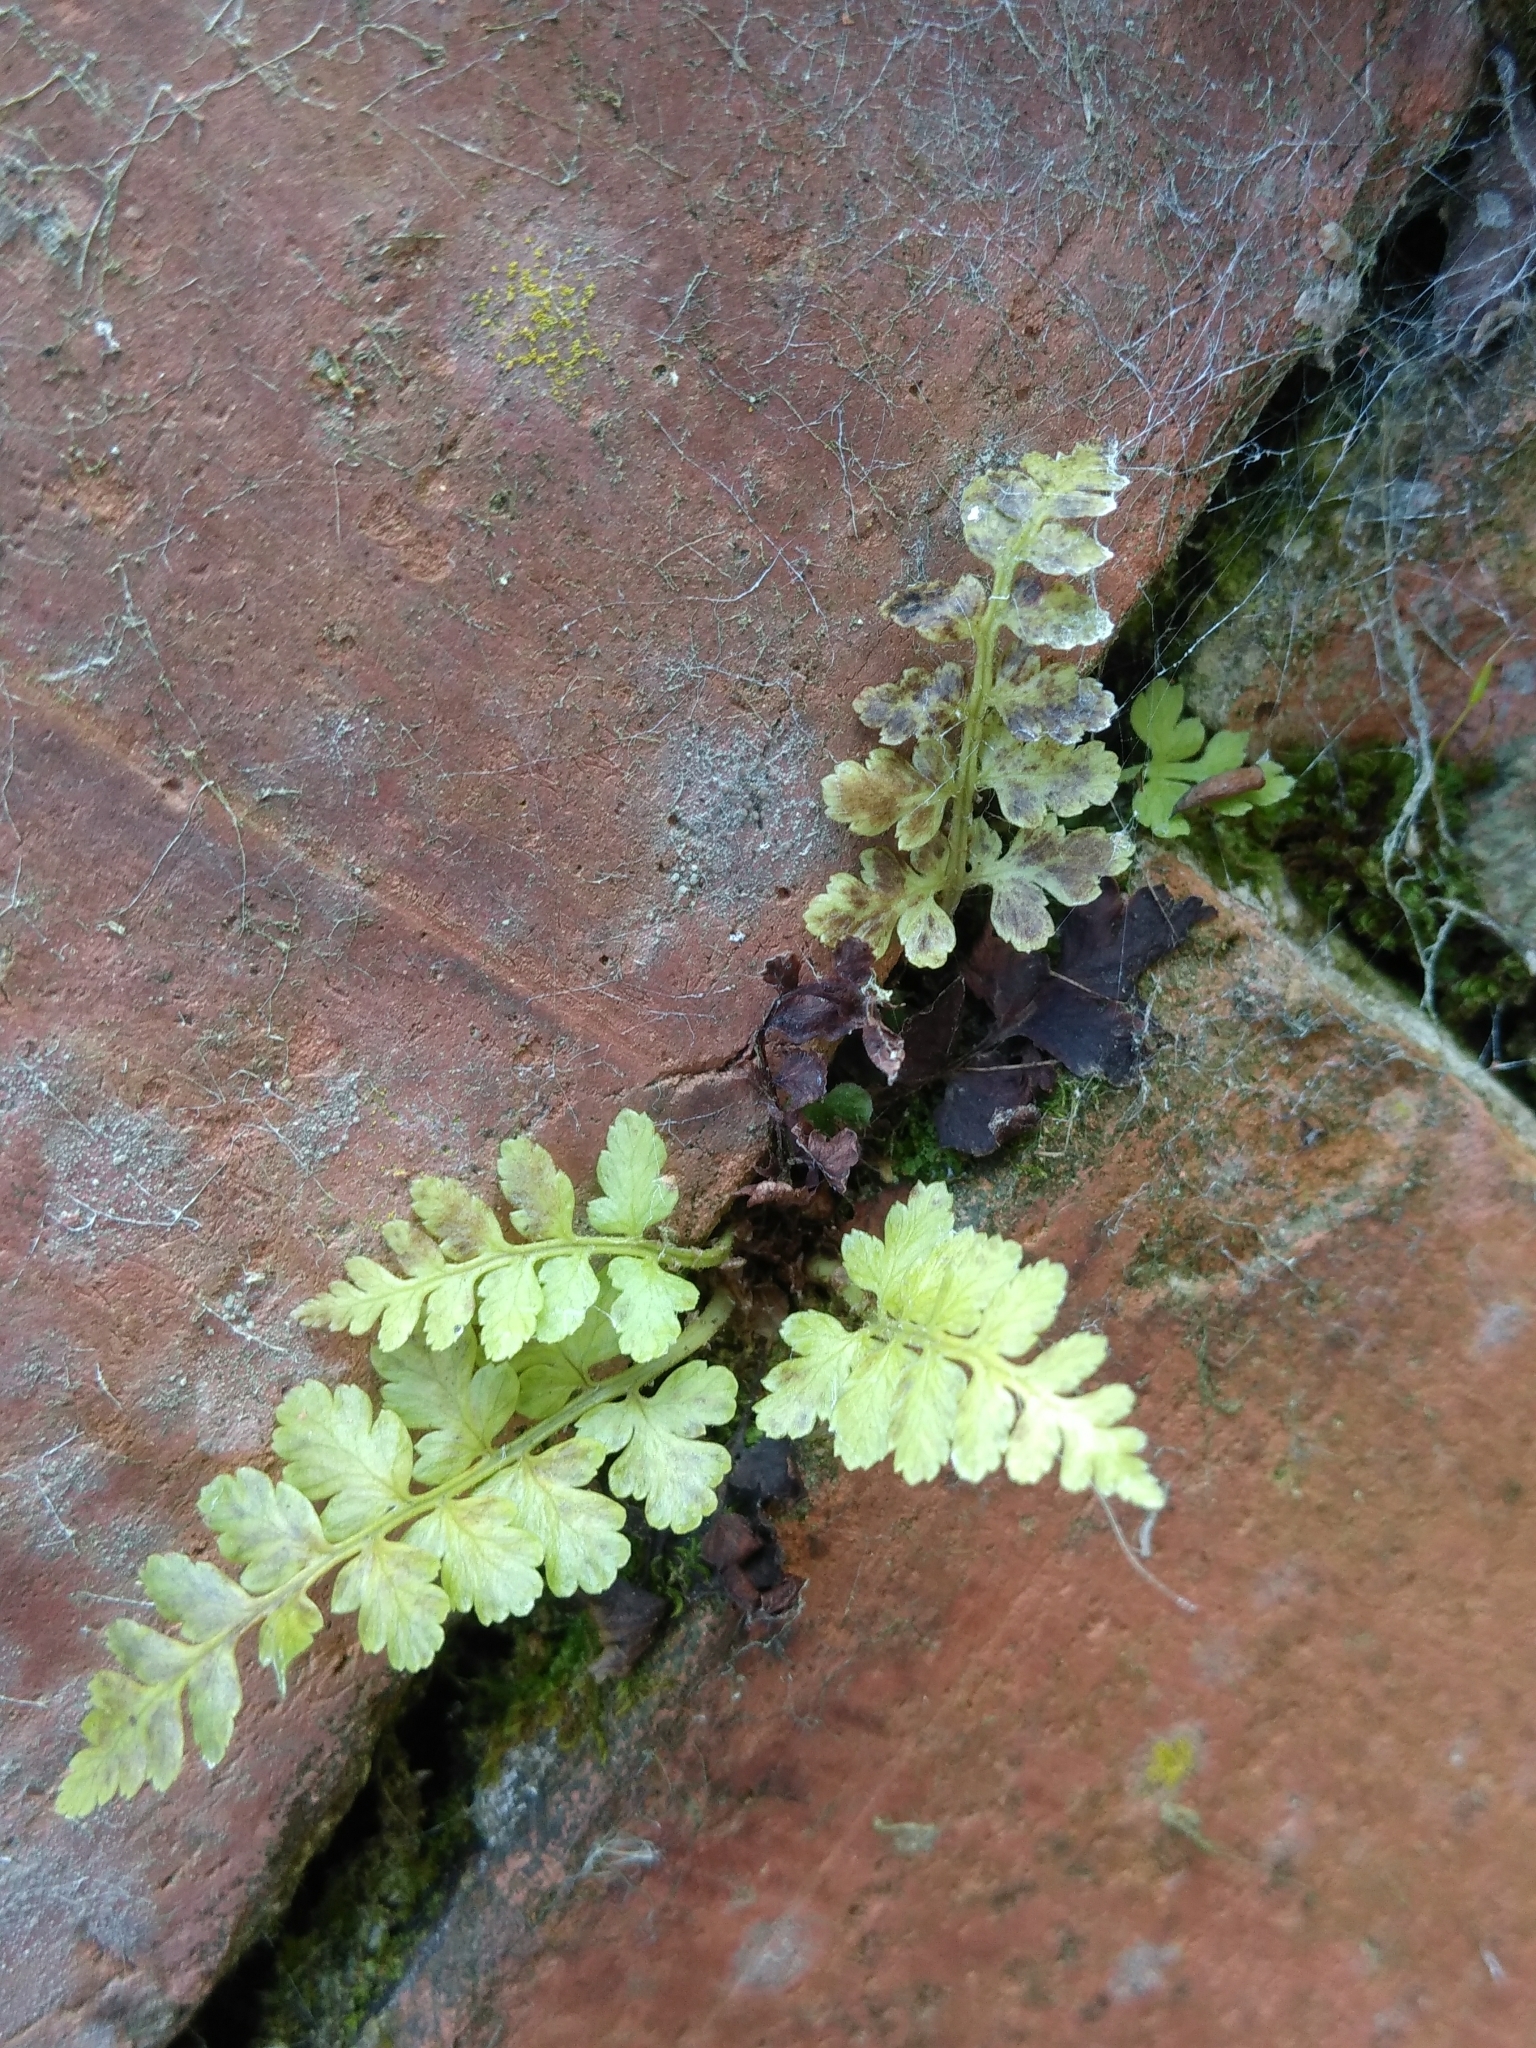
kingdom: Plantae
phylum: Tracheophyta
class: Polypodiopsida
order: Polypodiales
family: Aspleniaceae
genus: Asplenium
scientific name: Asplenium adiantum-nigrum
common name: Black spleenwort
